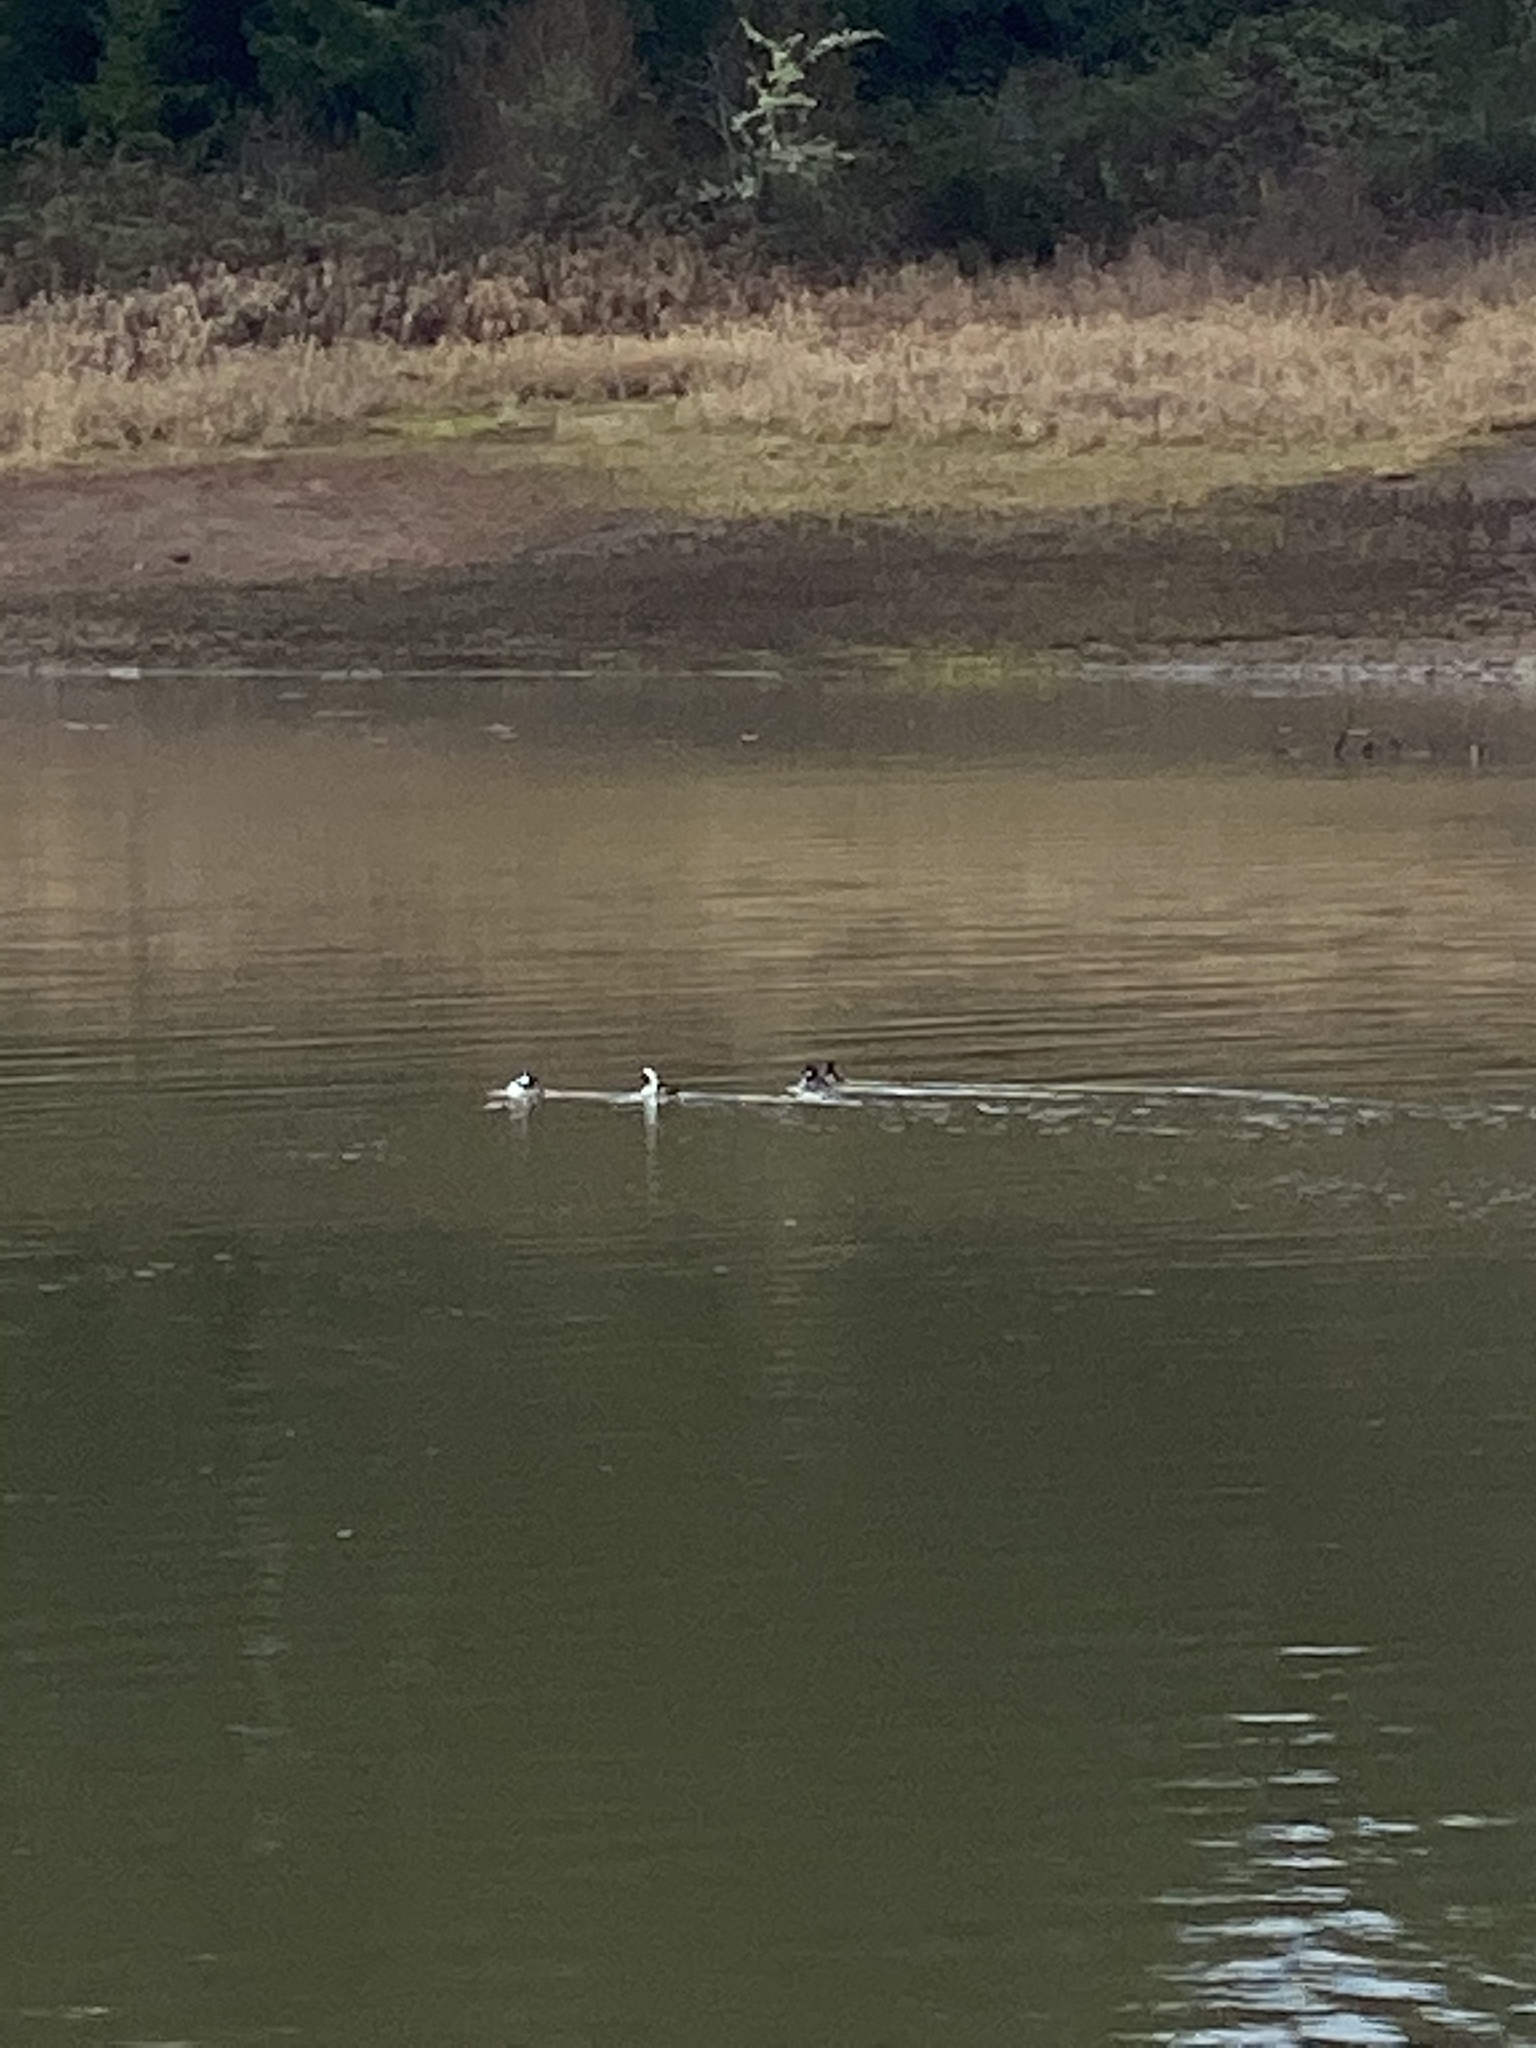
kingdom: Animalia
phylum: Chordata
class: Aves
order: Anseriformes
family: Anatidae
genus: Bucephala
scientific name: Bucephala albeola
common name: Bufflehead
